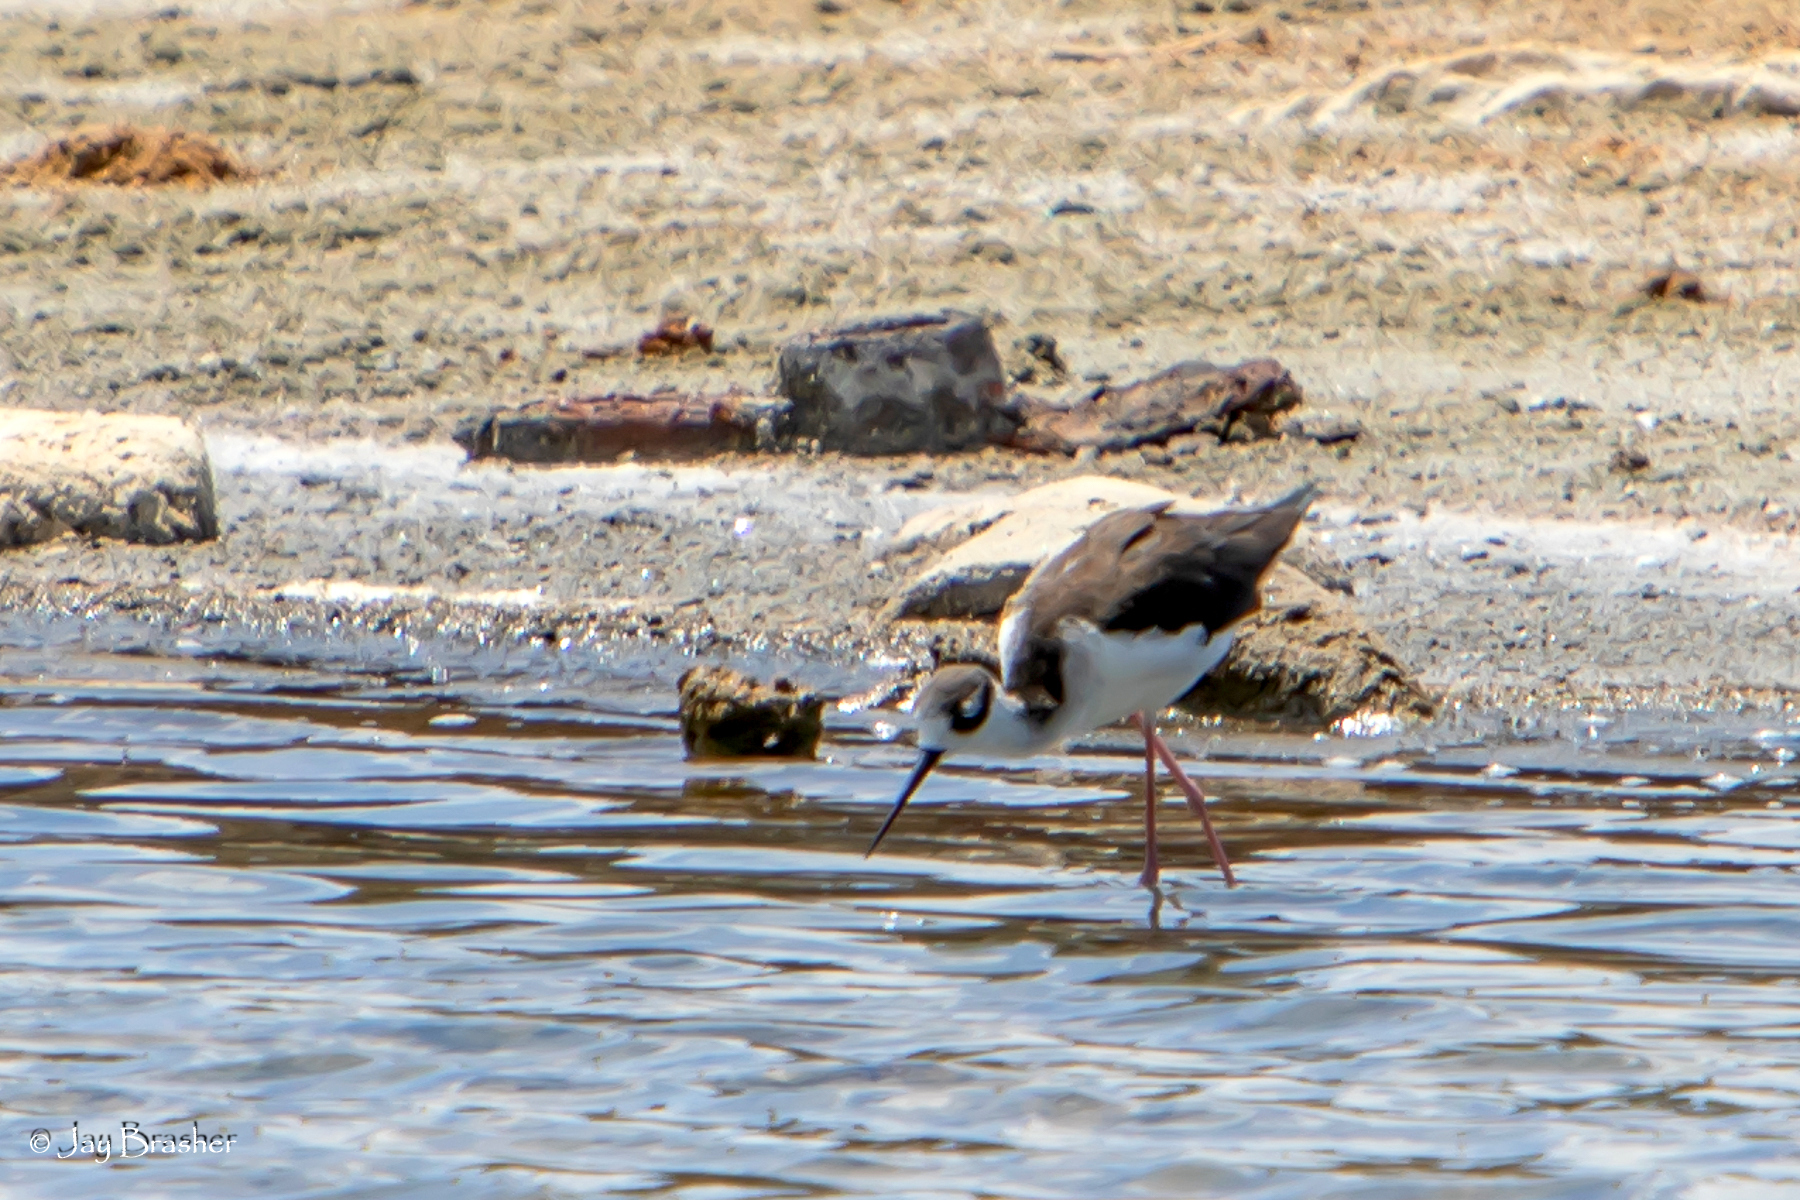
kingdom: Animalia
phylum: Chordata
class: Aves
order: Charadriiformes
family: Recurvirostridae
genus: Himantopus
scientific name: Himantopus mexicanus
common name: Black-necked stilt
